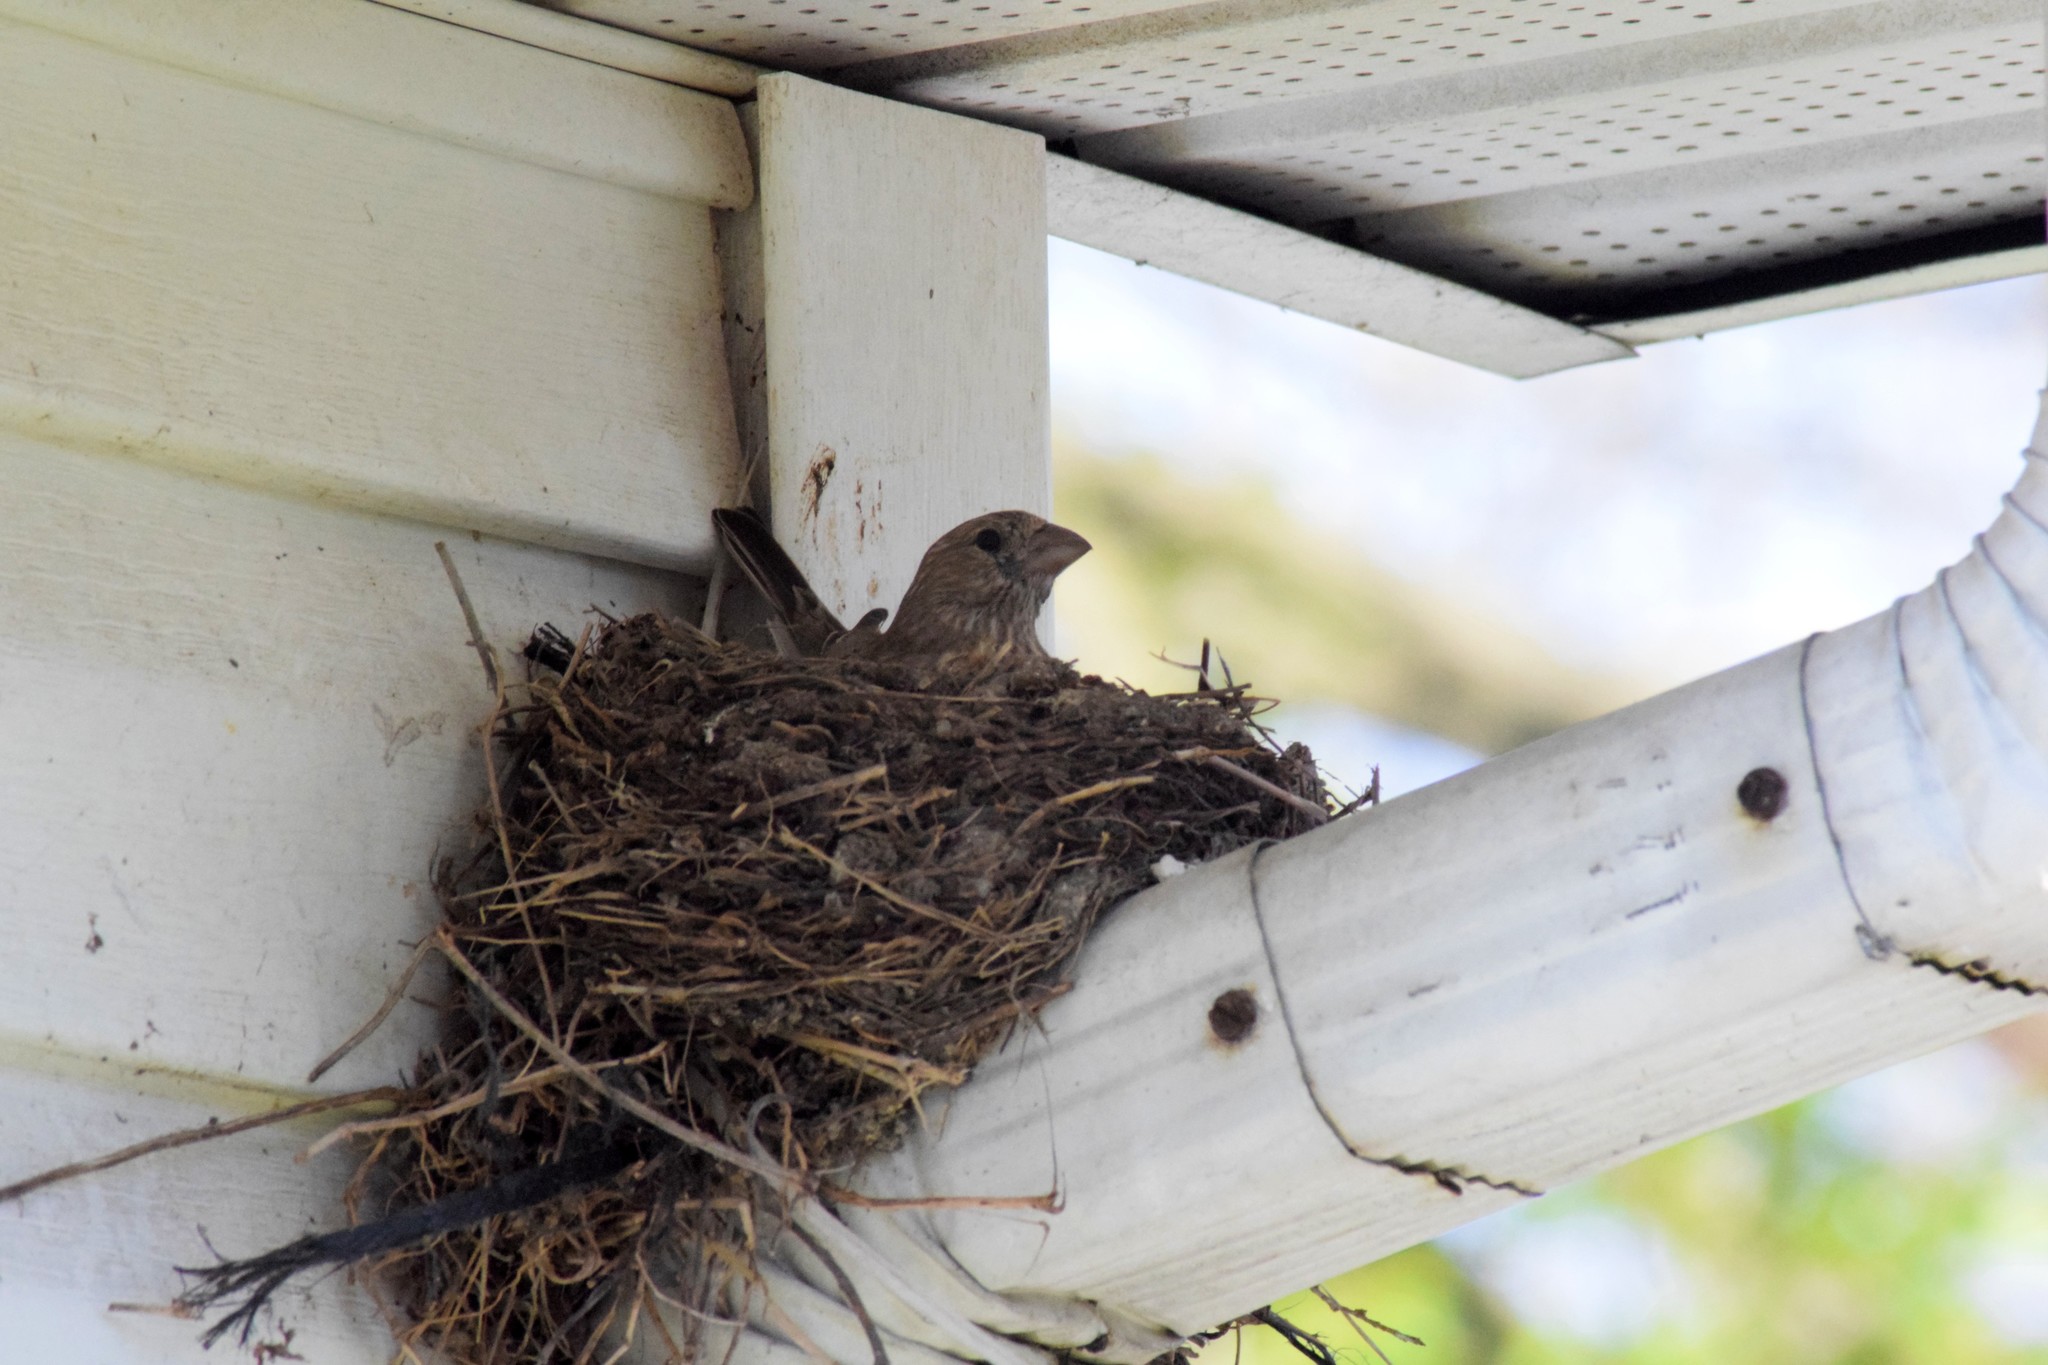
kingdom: Animalia
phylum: Chordata
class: Aves
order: Passeriformes
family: Fringillidae
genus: Haemorhous
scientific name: Haemorhous mexicanus
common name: House finch
